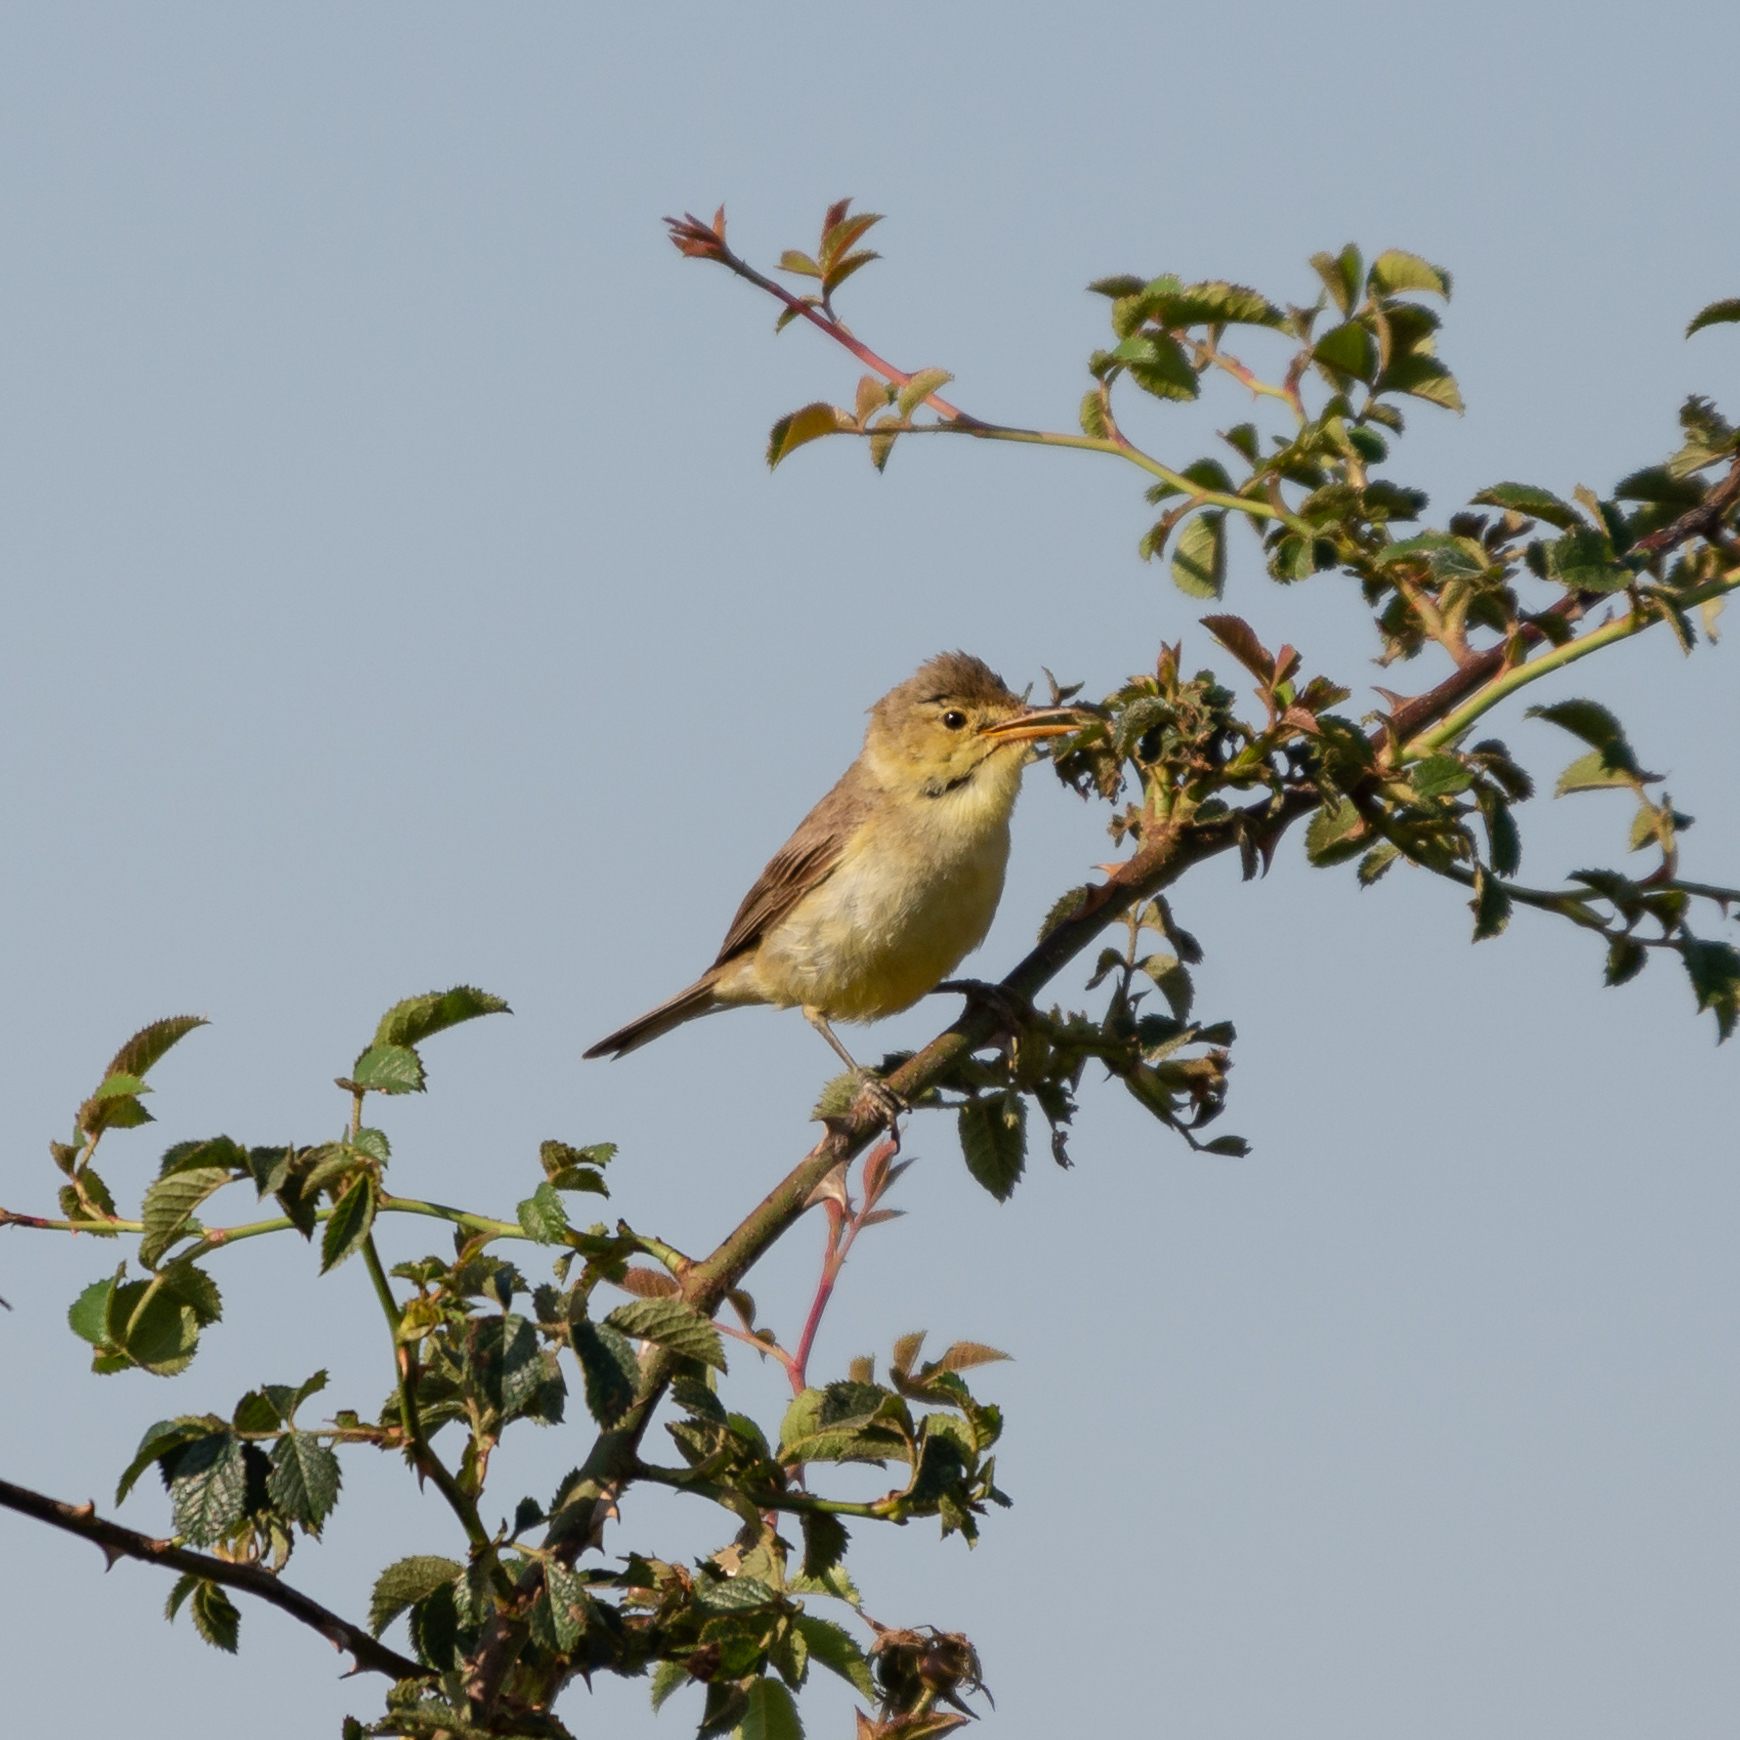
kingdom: Animalia
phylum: Chordata
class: Aves
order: Passeriformes
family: Acrocephalidae
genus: Hippolais
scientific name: Hippolais polyglotta
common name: Melodious warbler
